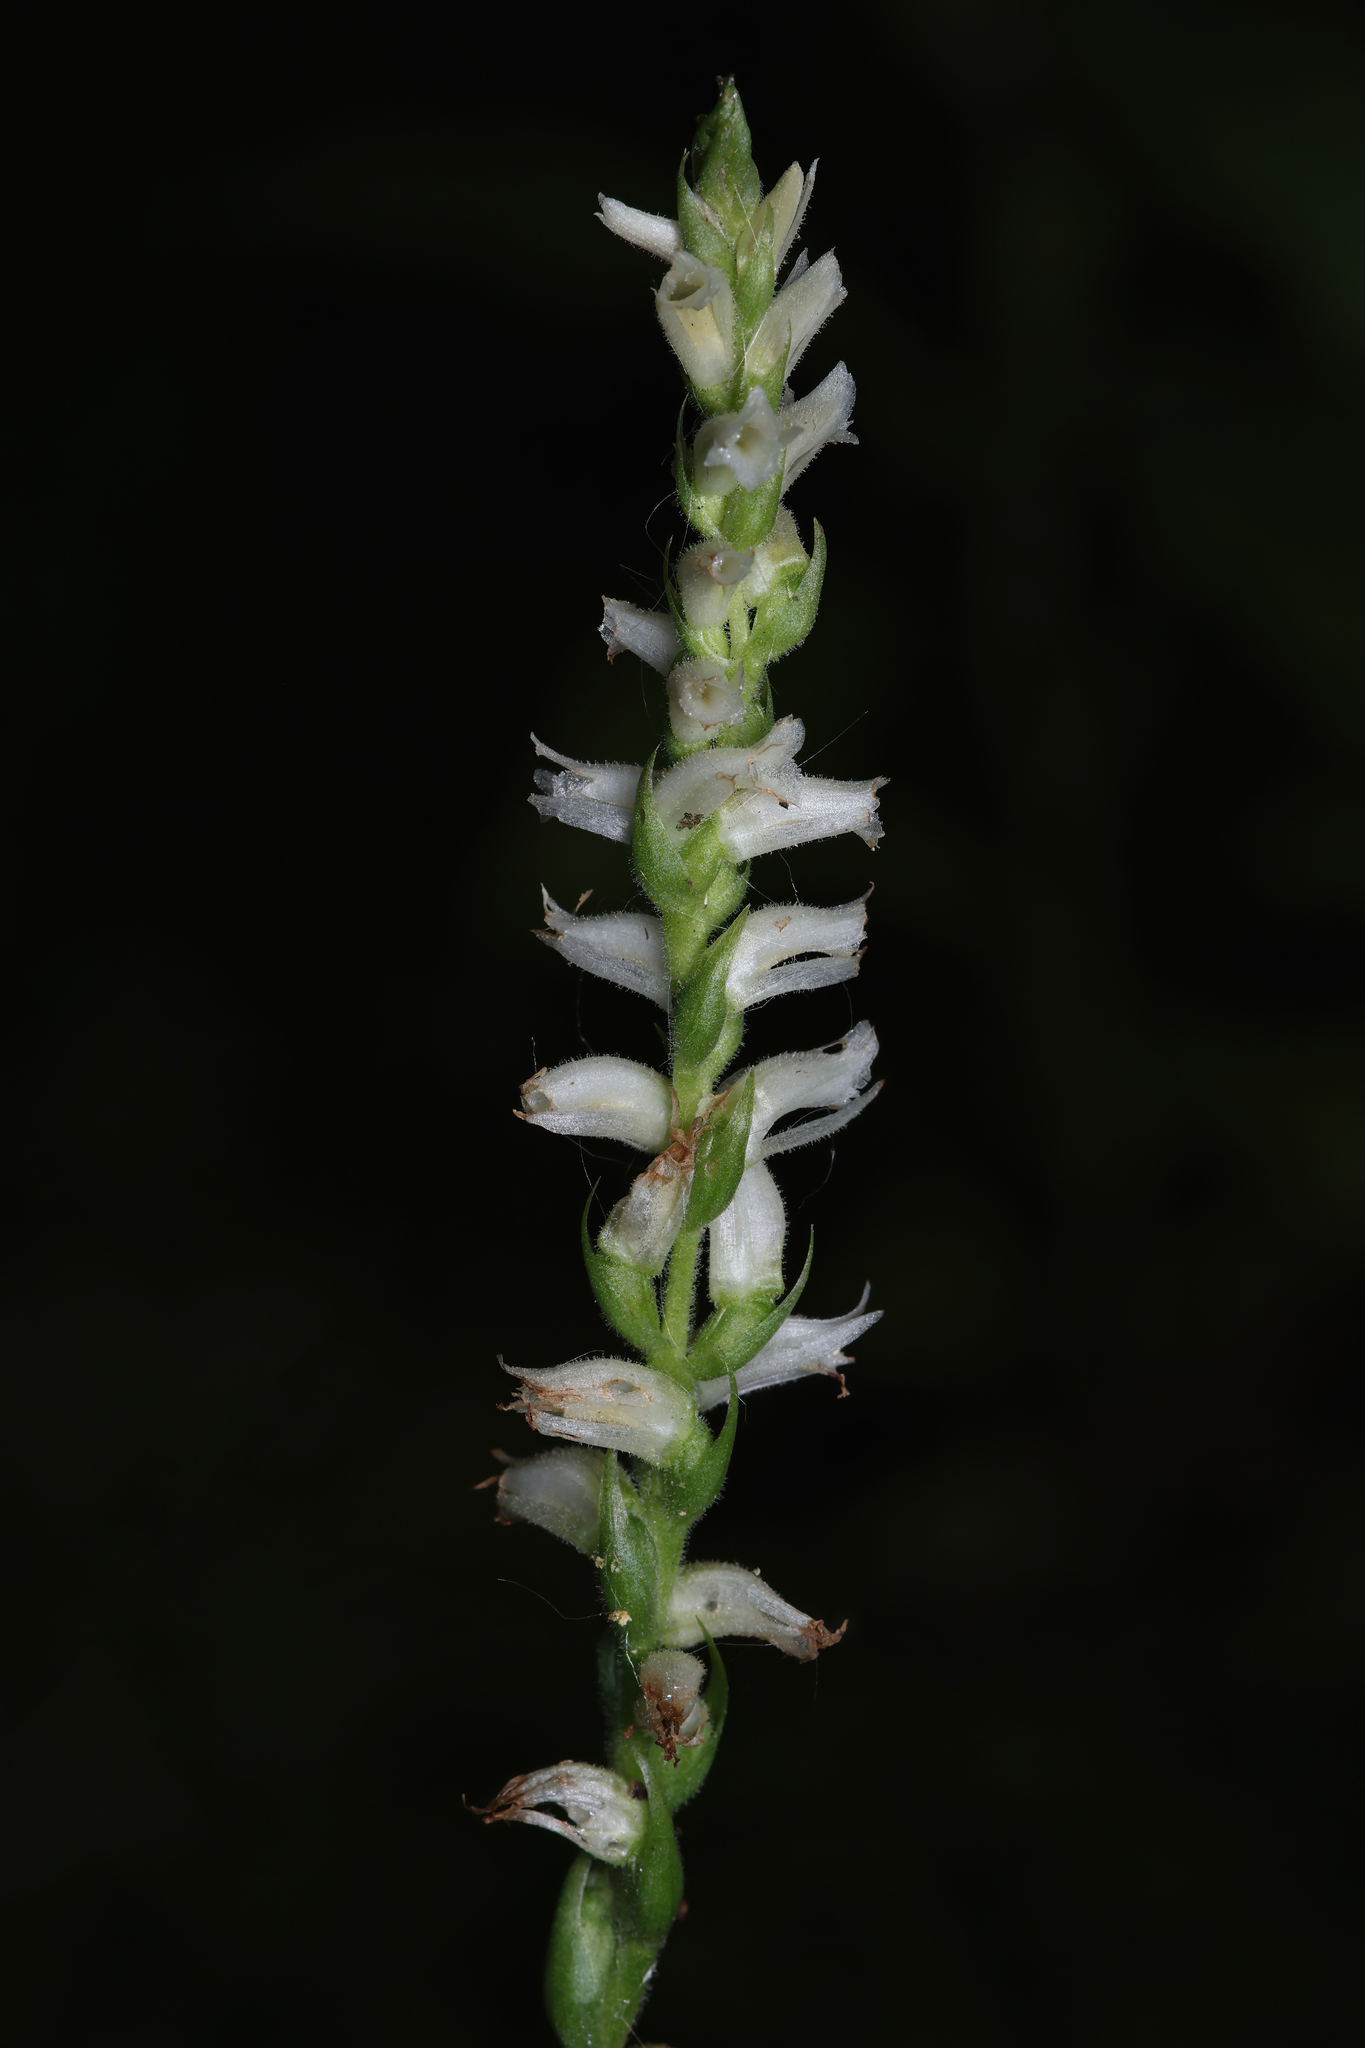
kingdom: Plantae
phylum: Tracheophyta
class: Liliopsida
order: Asparagales
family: Orchidaceae
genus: Spiranthes
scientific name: Spiranthes ochroleuca
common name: Yellow ladies'-tresses
